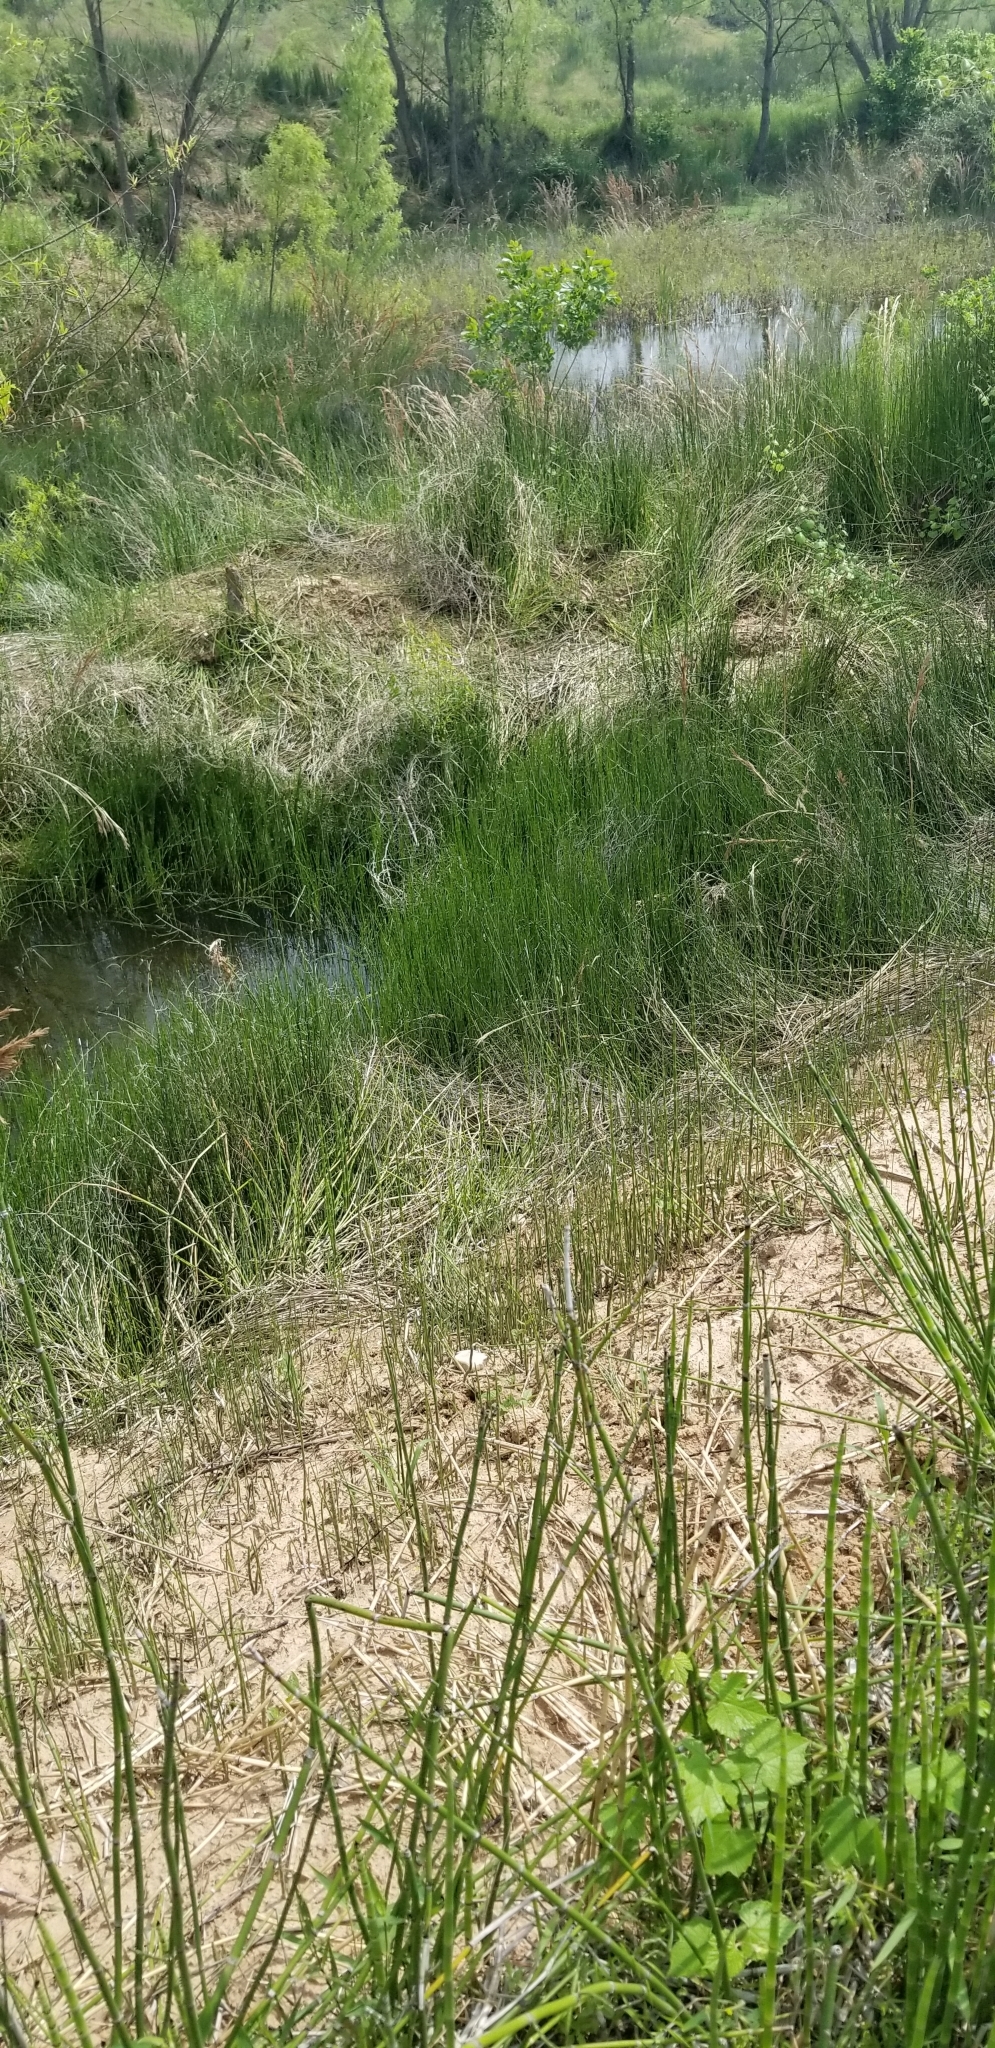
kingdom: Plantae
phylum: Tracheophyta
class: Polypodiopsida
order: Equisetales
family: Equisetaceae
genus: Equisetum
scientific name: Equisetum hyemale
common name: Rough horsetail
